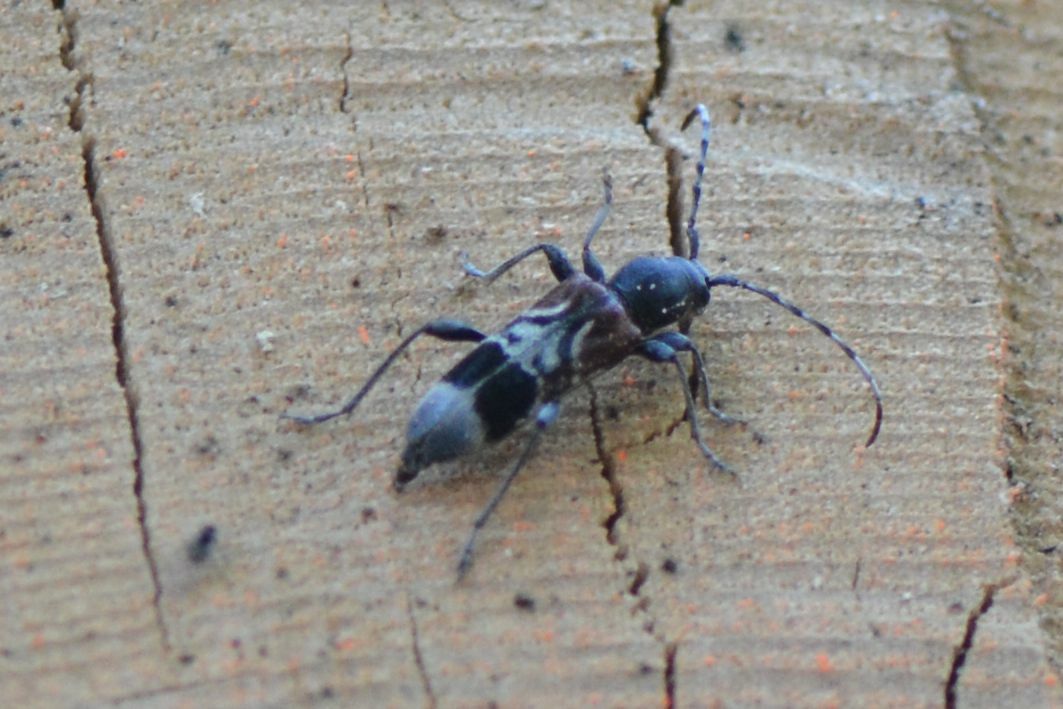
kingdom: Animalia
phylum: Arthropoda
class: Insecta
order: Coleoptera
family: Cerambycidae
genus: Anaglyptus
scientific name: Anaglyptus mysticus
